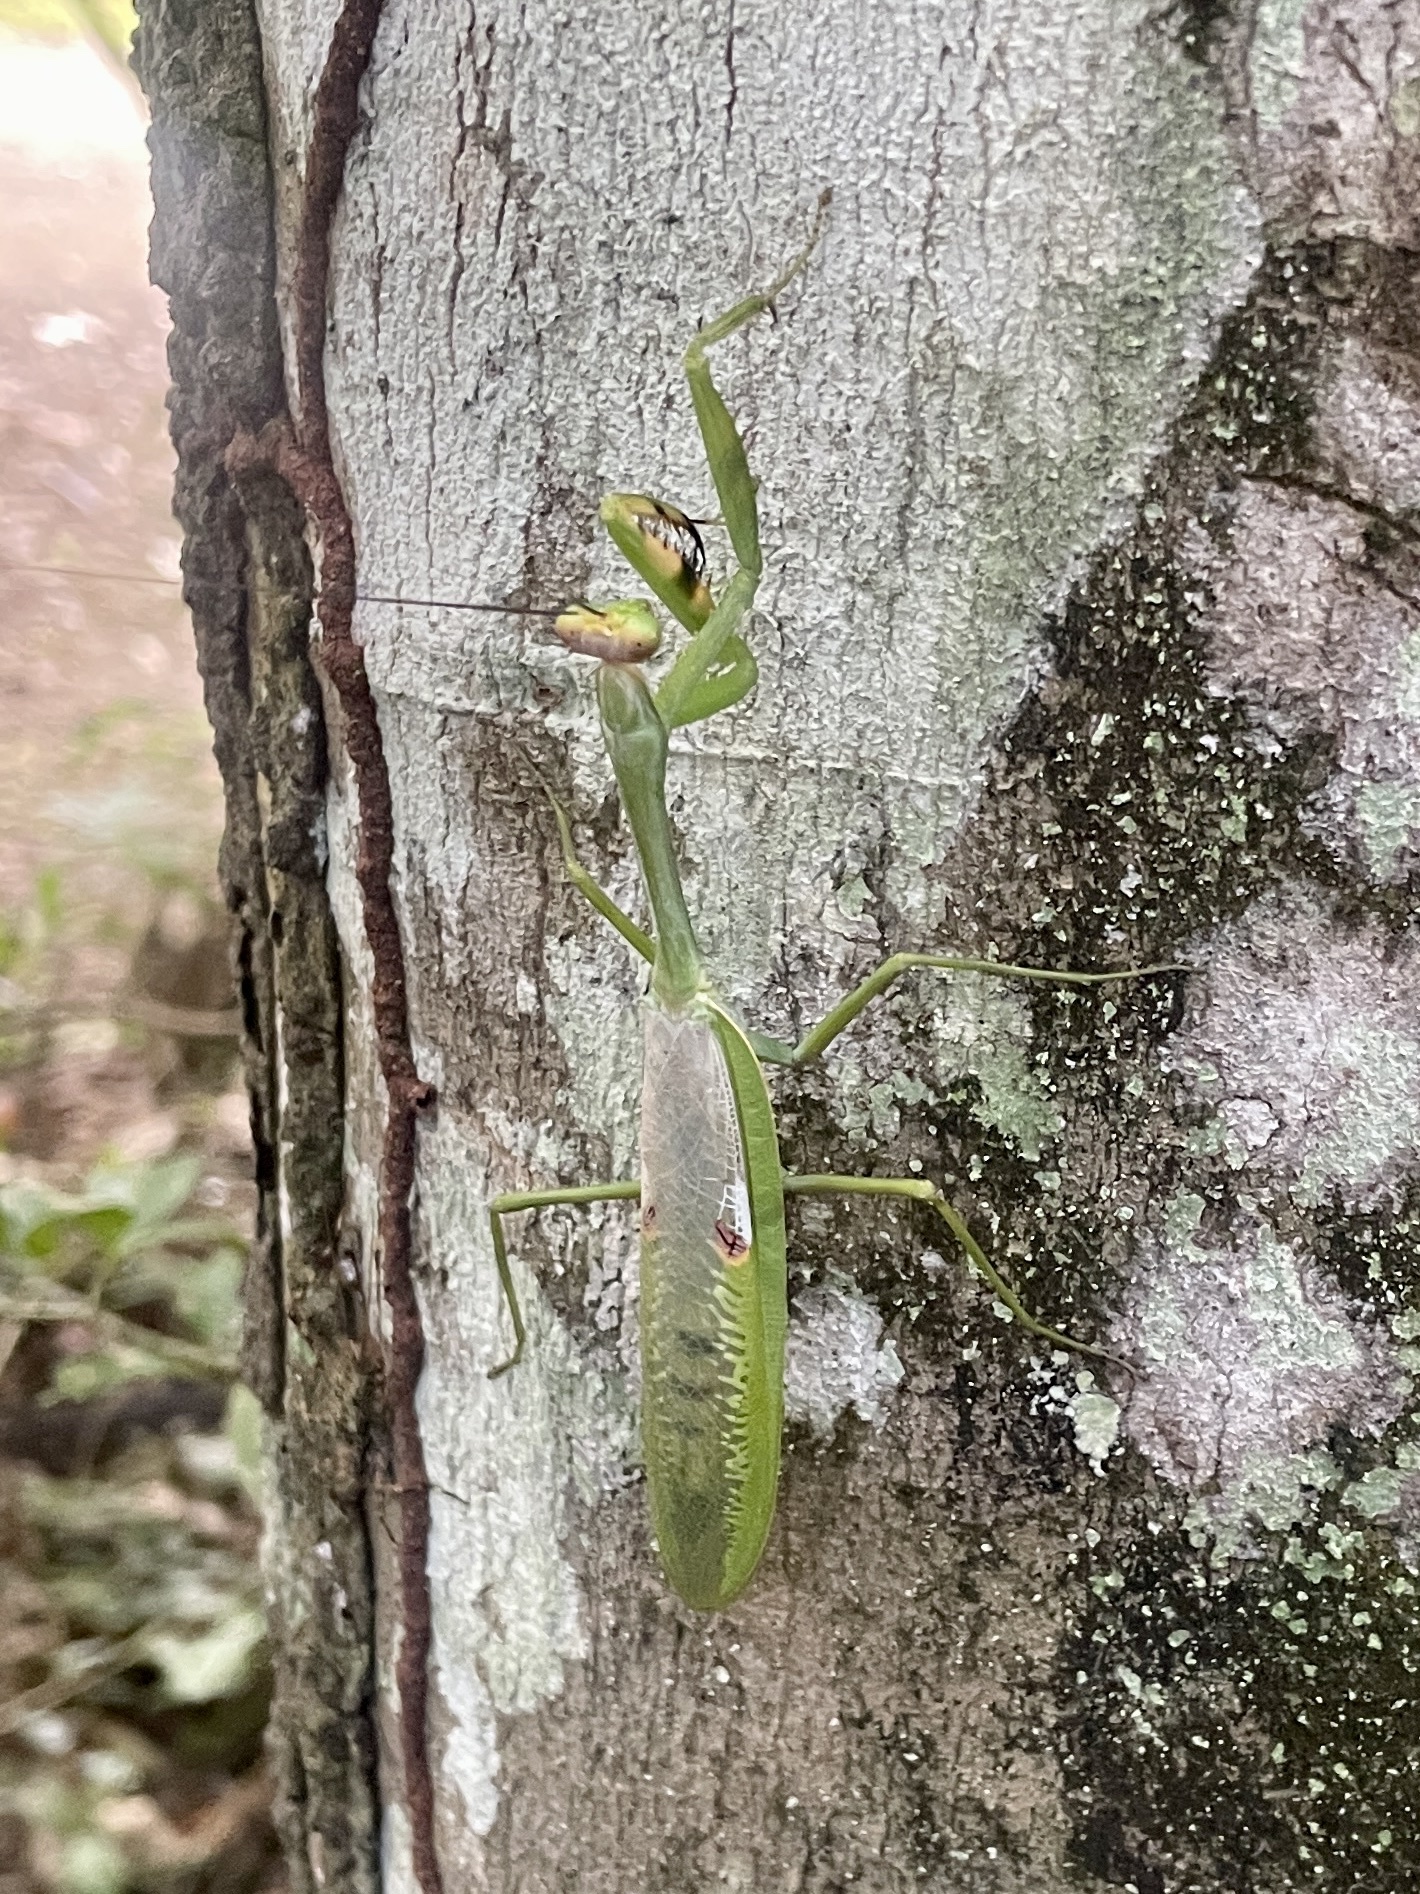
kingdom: Animalia
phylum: Arthropoda
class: Insecta
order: Mantodea
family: Mantidae
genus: Stagmatoptera
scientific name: Stagmatoptera septentrionalis
